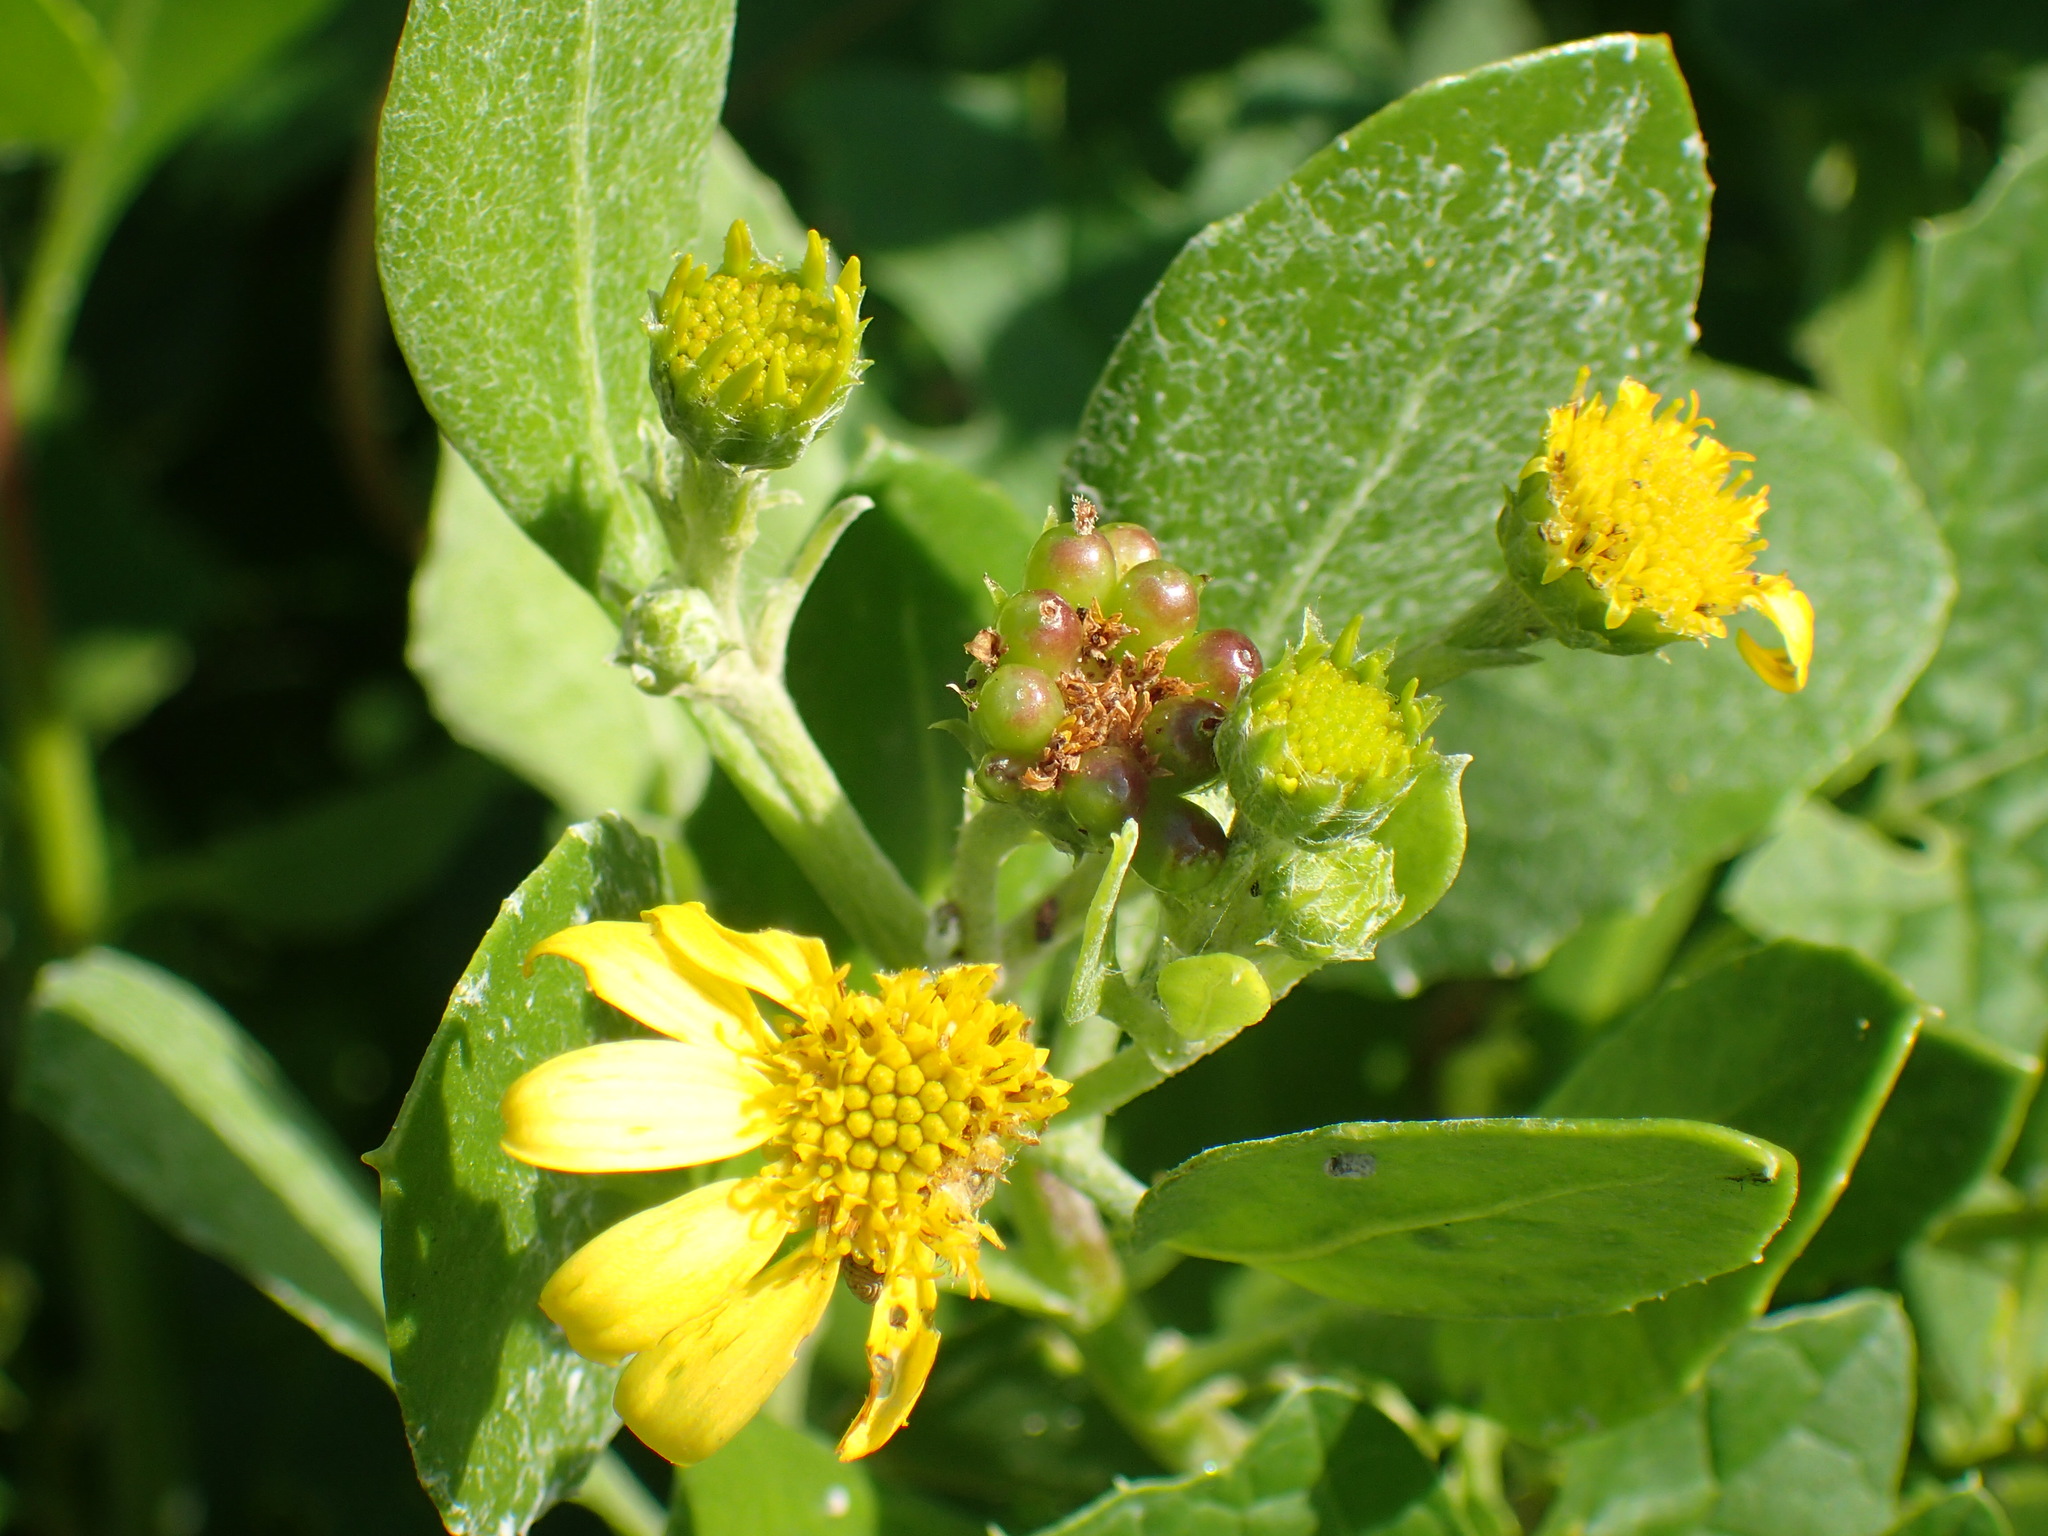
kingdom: Plantae
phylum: Tracheophyta
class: Magnoliopsida
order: Asterales
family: Asteraceae
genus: Osteospermum
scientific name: Osteospermum moniliferum
